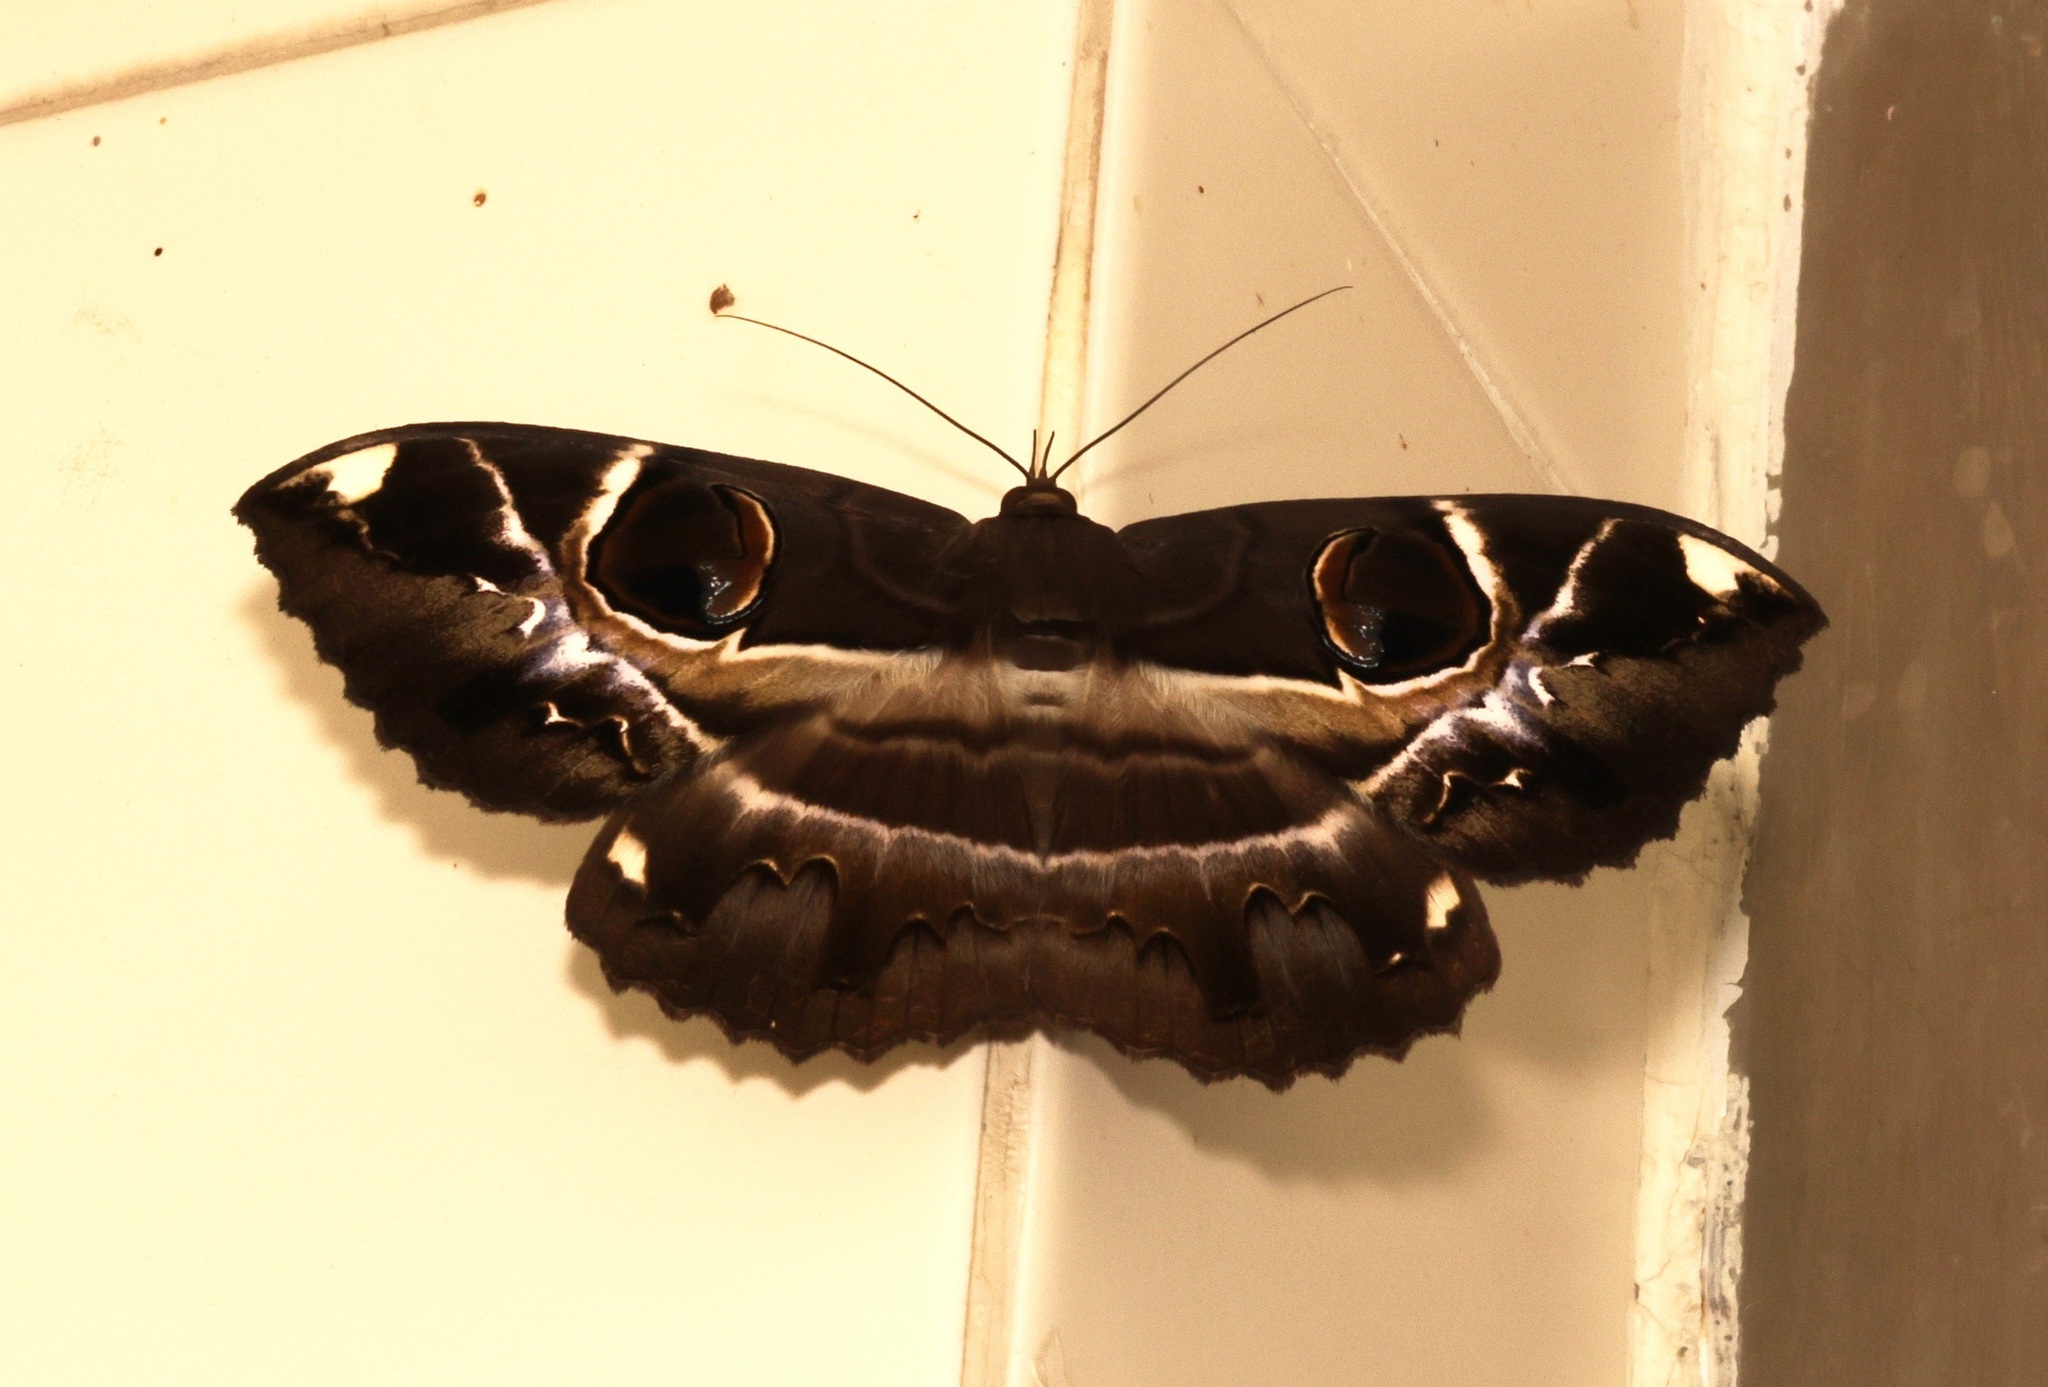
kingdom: Animalia
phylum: Arthropoda
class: Insecta
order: Lepidoptera
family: Erebidae
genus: Erebus
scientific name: Erebus ephesperis
